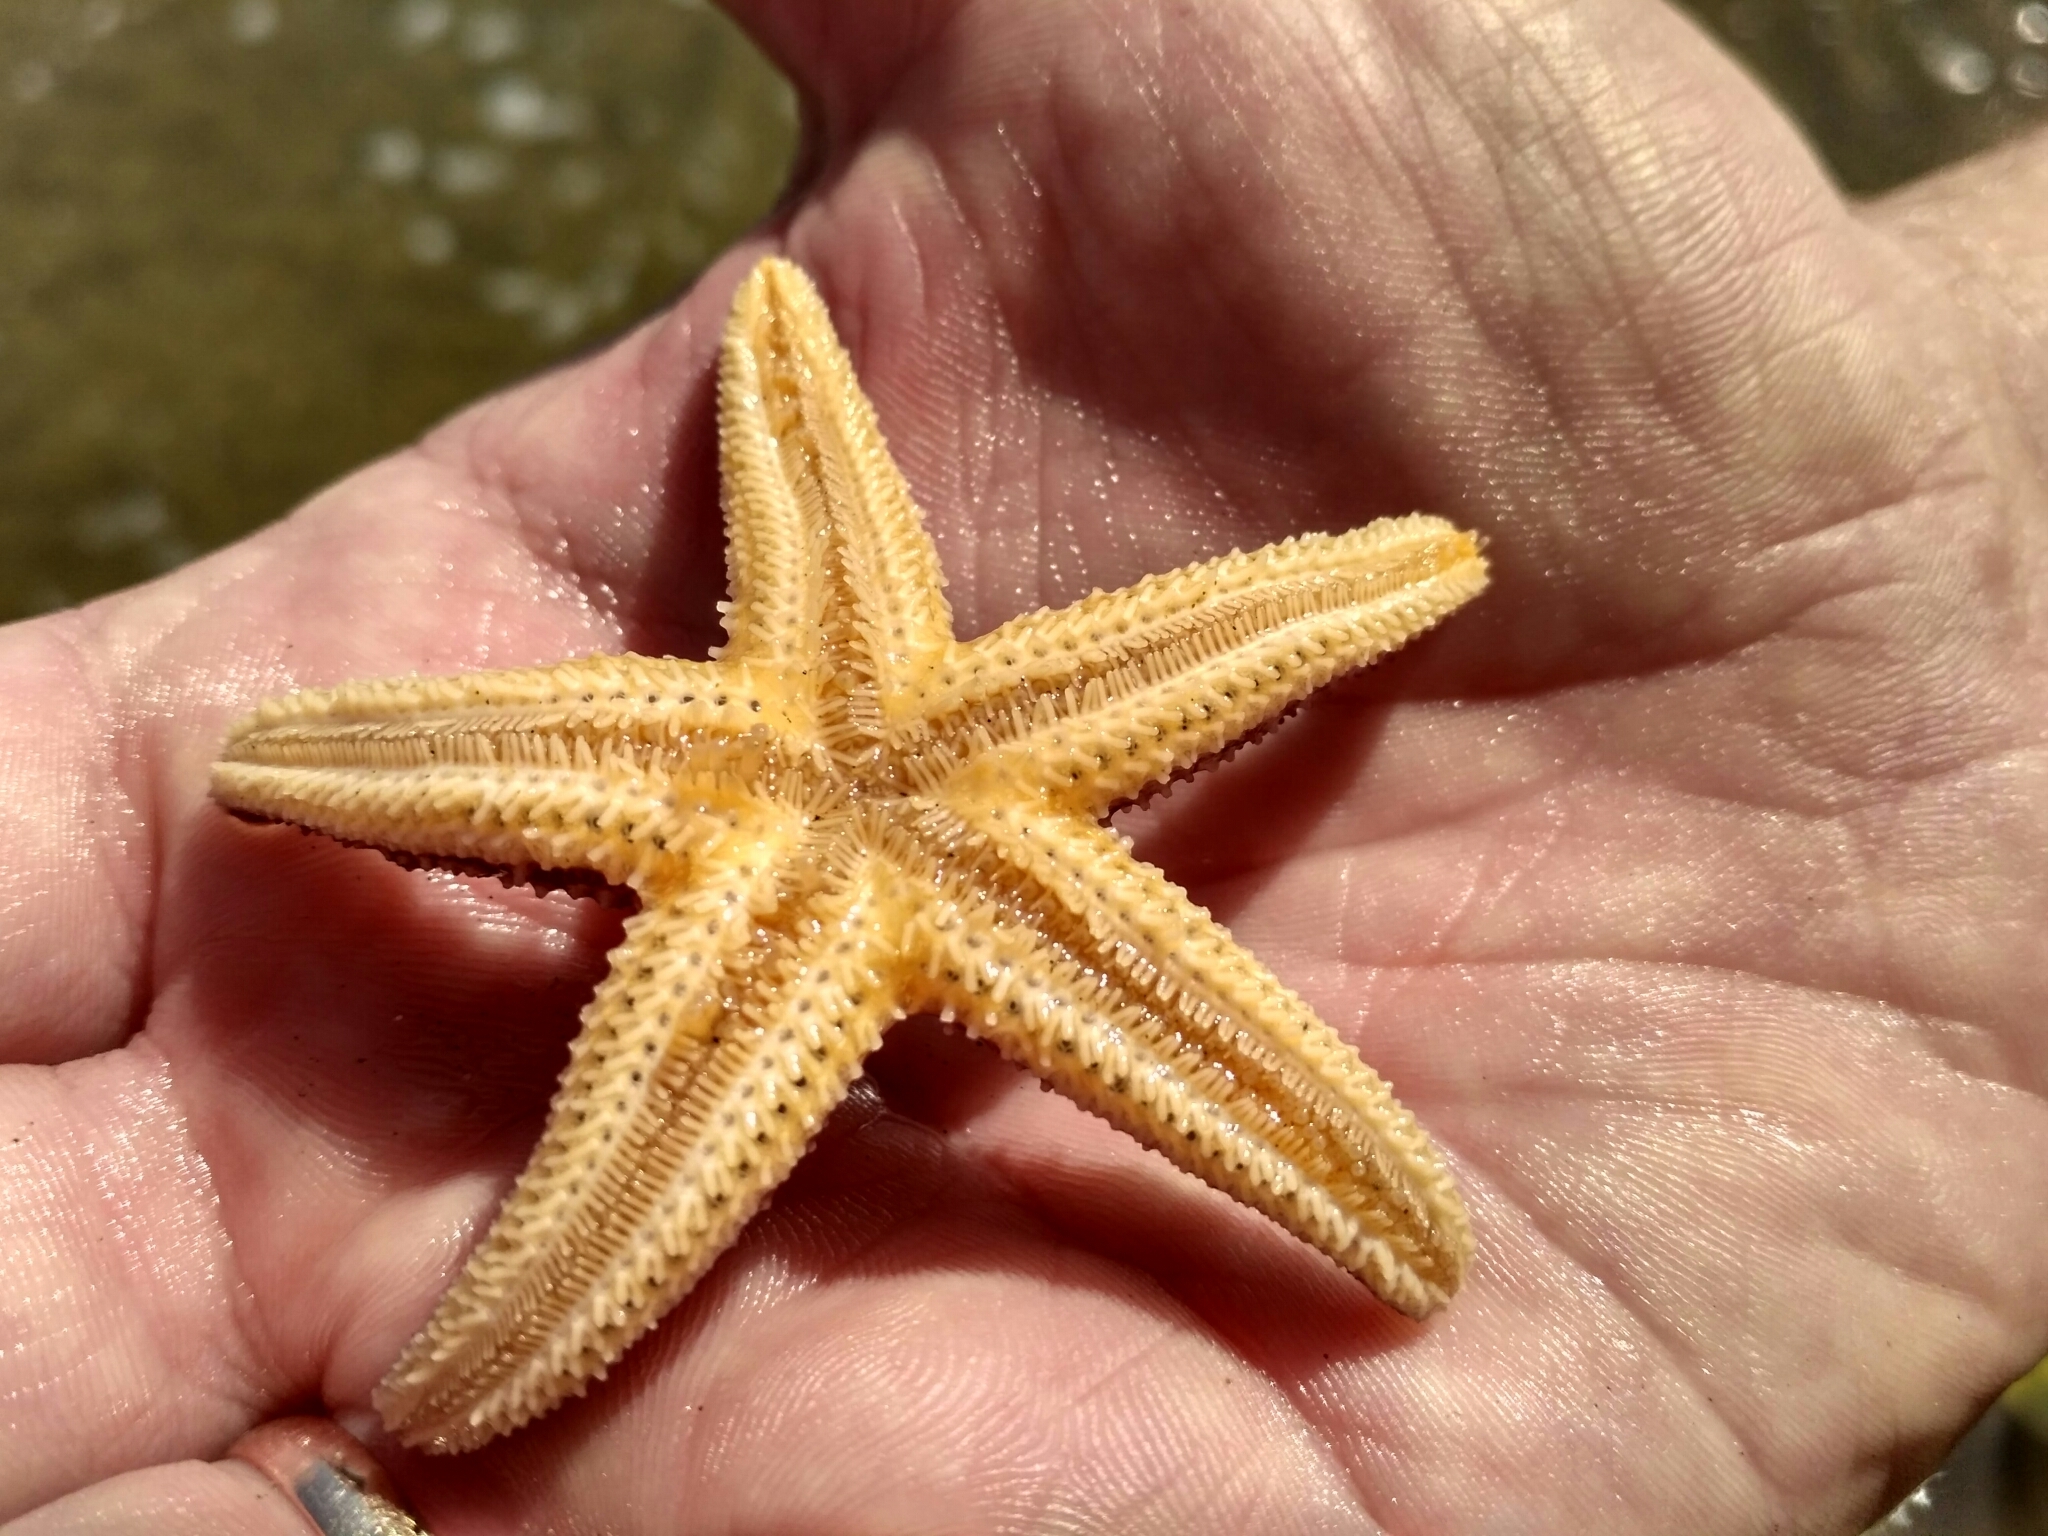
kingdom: Animalia
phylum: Echinodermata
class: Asteroidea
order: Forcipulatida
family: Asteriidae
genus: Asterias
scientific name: Asterias amurensis
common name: Flat-bottomed star
